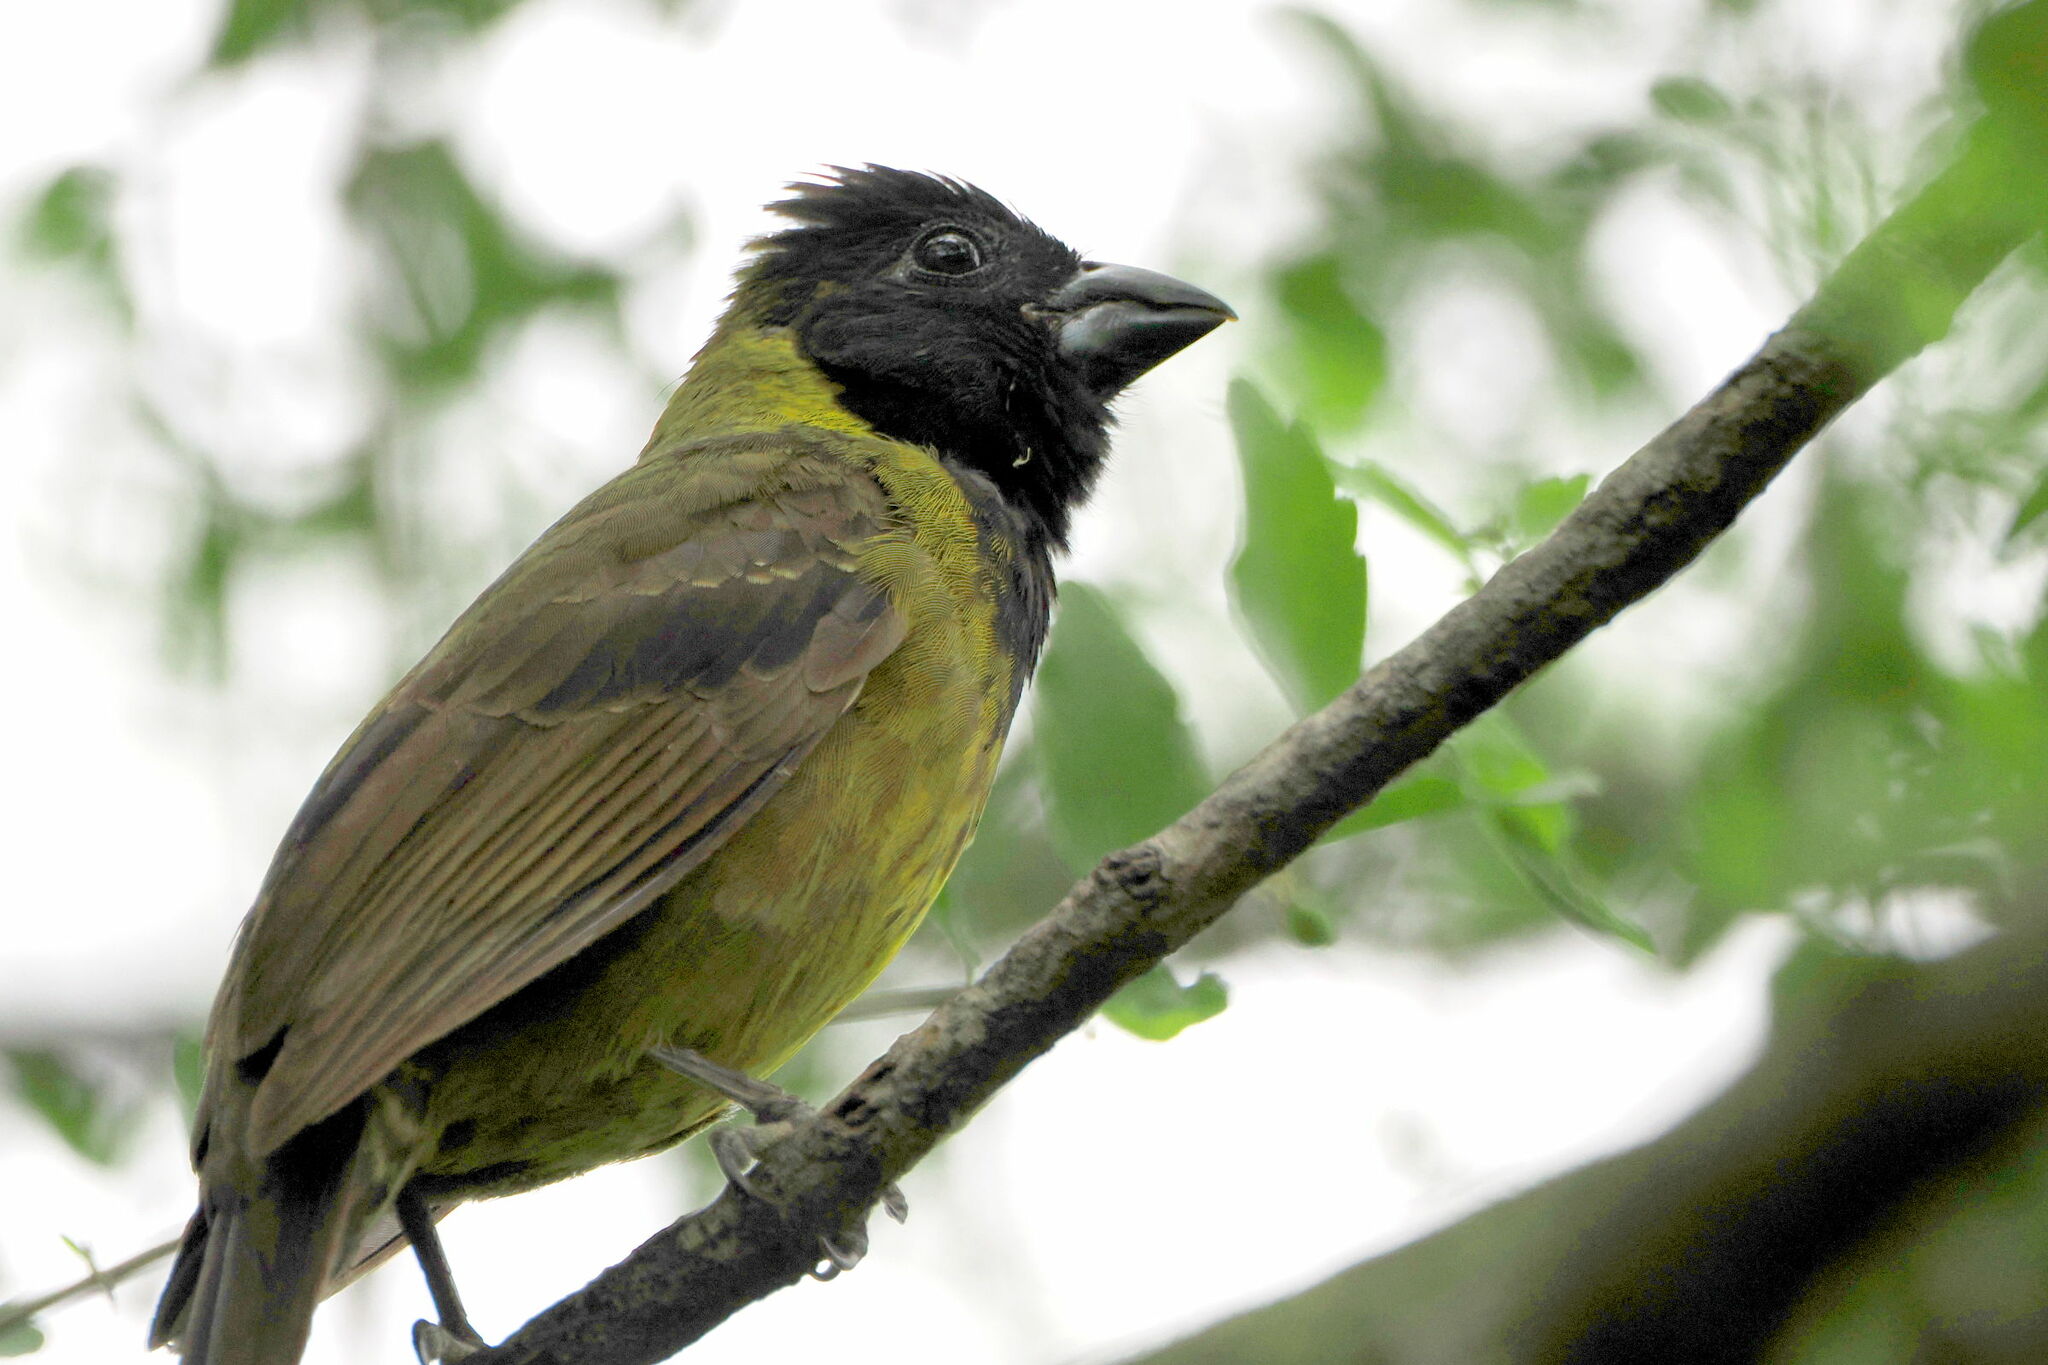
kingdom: Animalia
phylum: Chordata
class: Aves
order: Passeriformes
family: Cardinalidae
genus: Rhodothraupis
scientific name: Rhodothraupis celaeno
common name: Crimson-collared grosbeak
